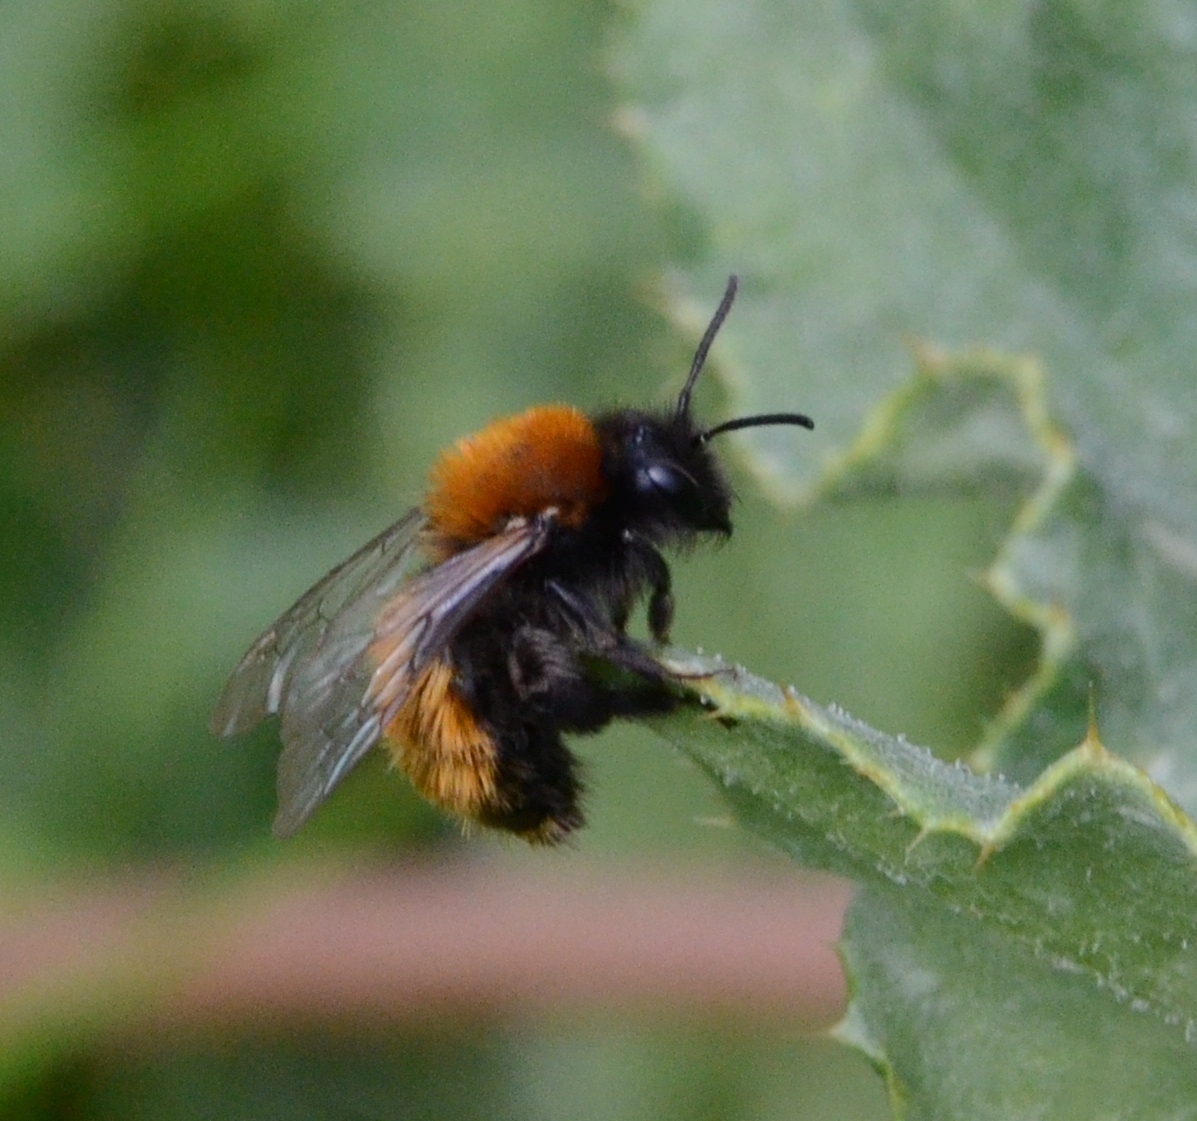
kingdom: Animalia
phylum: Arthropoda
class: Insecta
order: Hymenoptera
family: Andrenidae
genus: Andrena
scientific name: Andrena fulva
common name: Tawny mining bee
